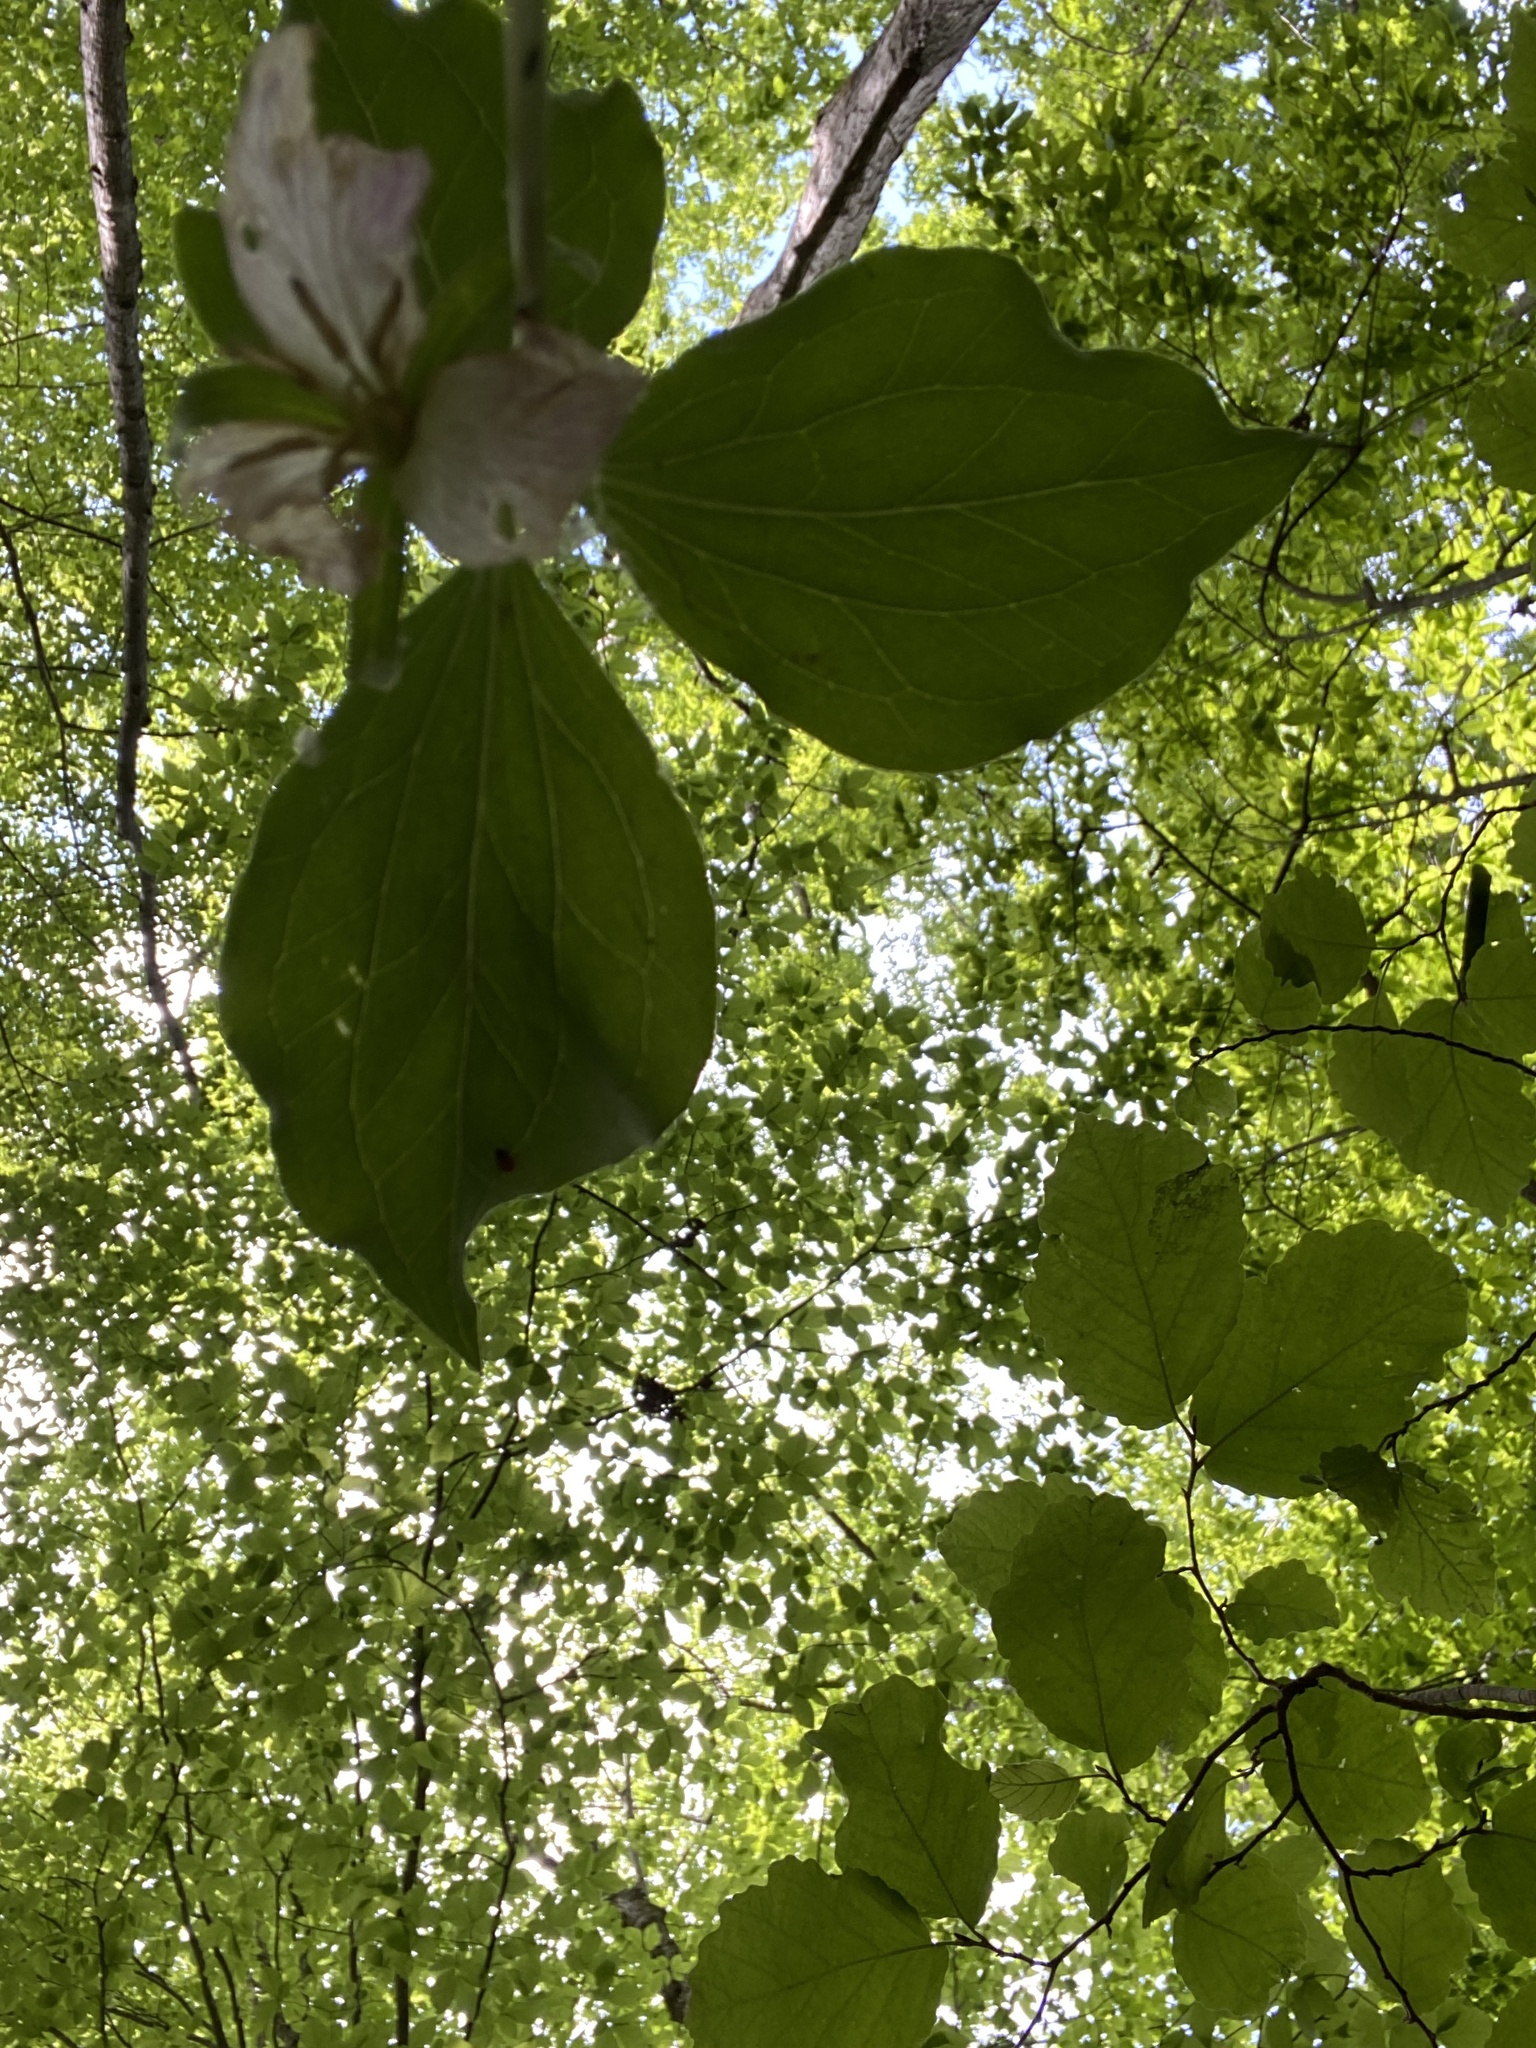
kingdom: Plantae
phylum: Tracheophyta
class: Liliopsida
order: Liliales
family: Melanthiaceae
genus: Trillium
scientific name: Trillium catesbaei
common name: Bashful trillium
